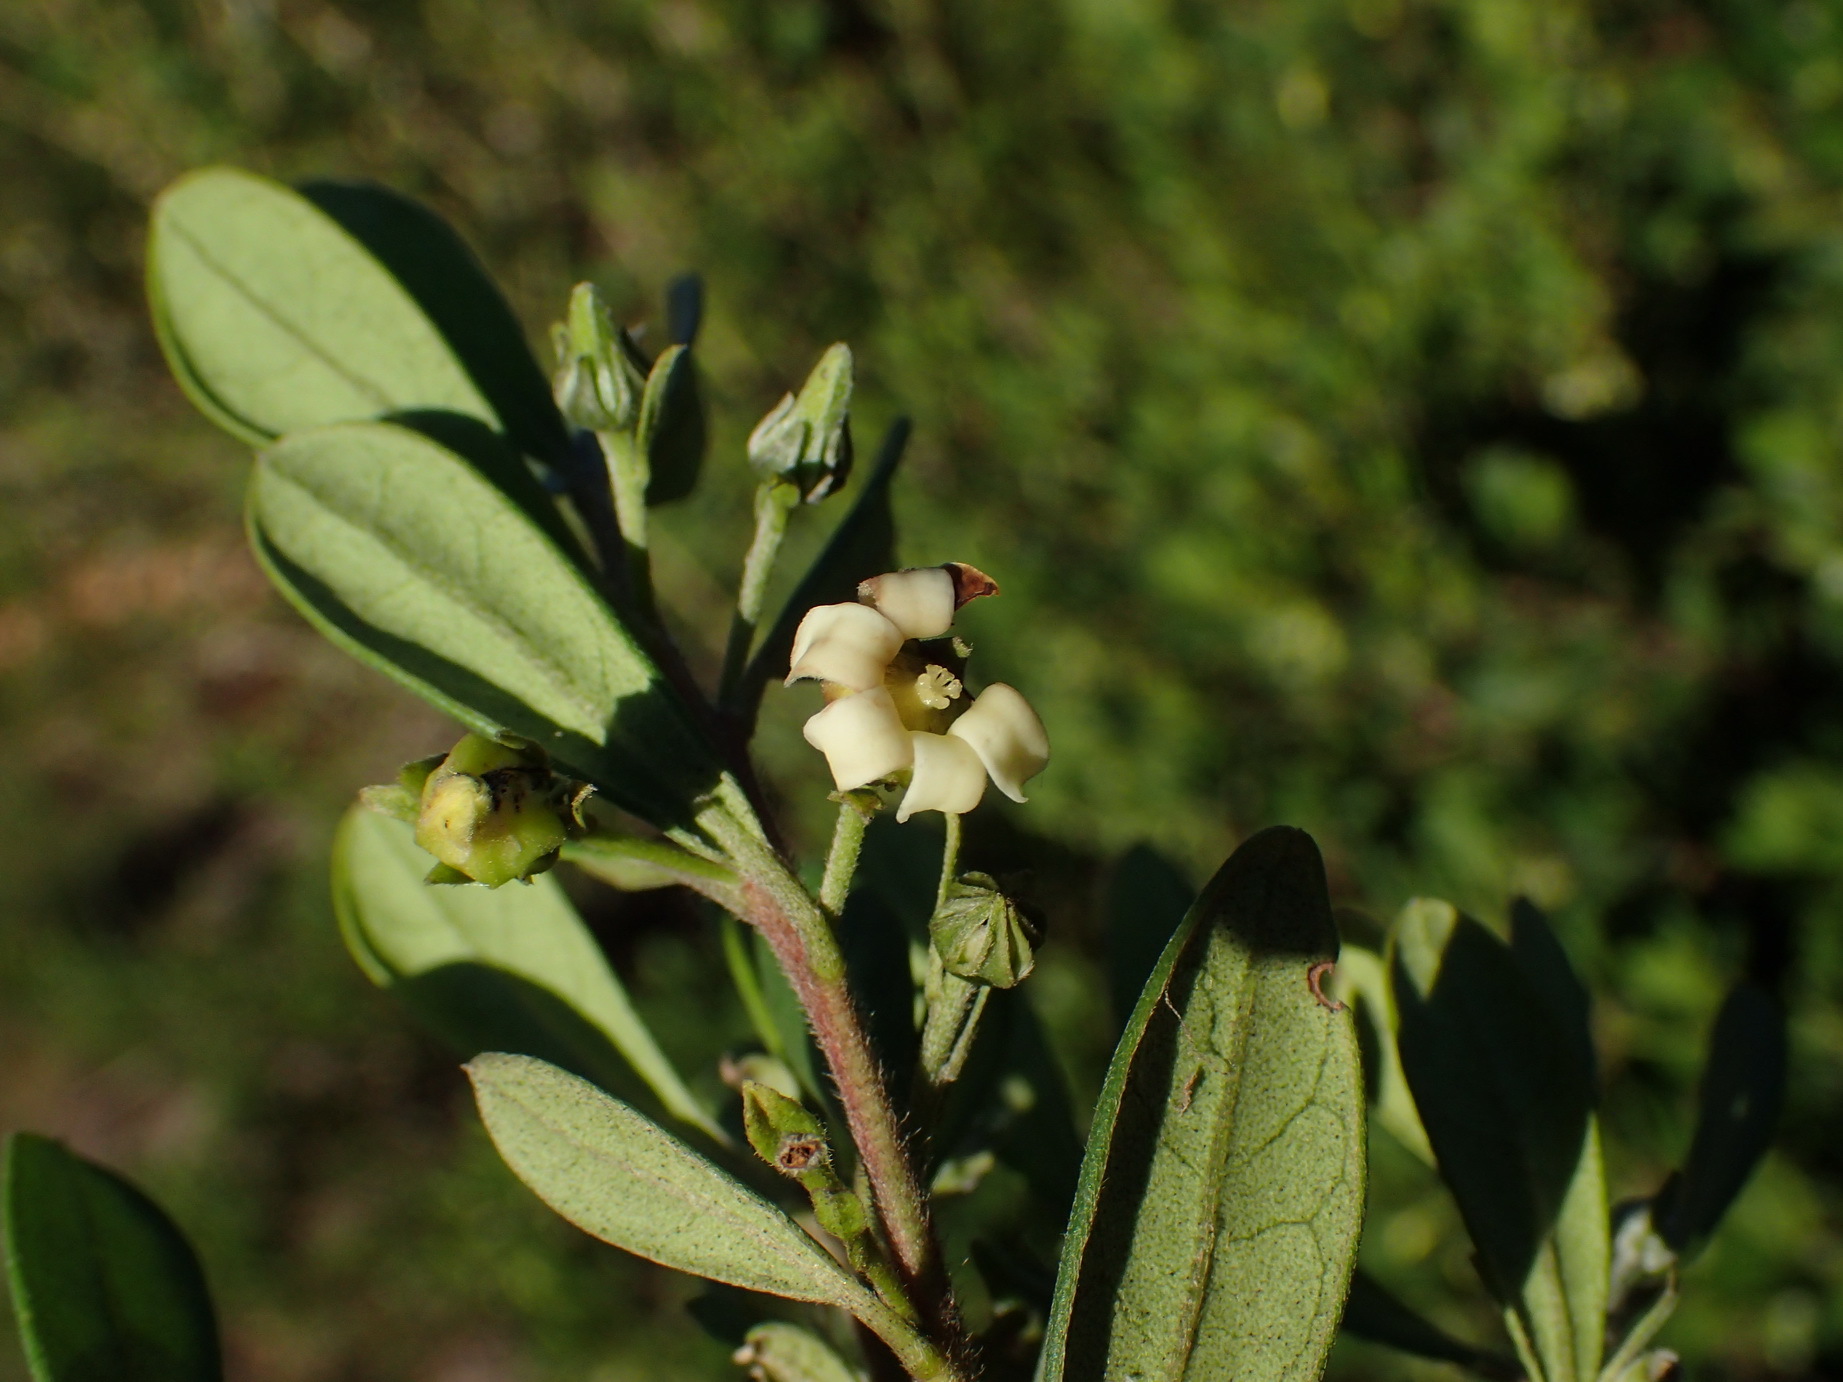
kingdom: Plantae
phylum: Tracheophyta
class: Magnoliopsida
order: Ericales
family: Ebenaceae
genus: Diospyros
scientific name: Diospyros dichrophylla
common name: Common star-apple
